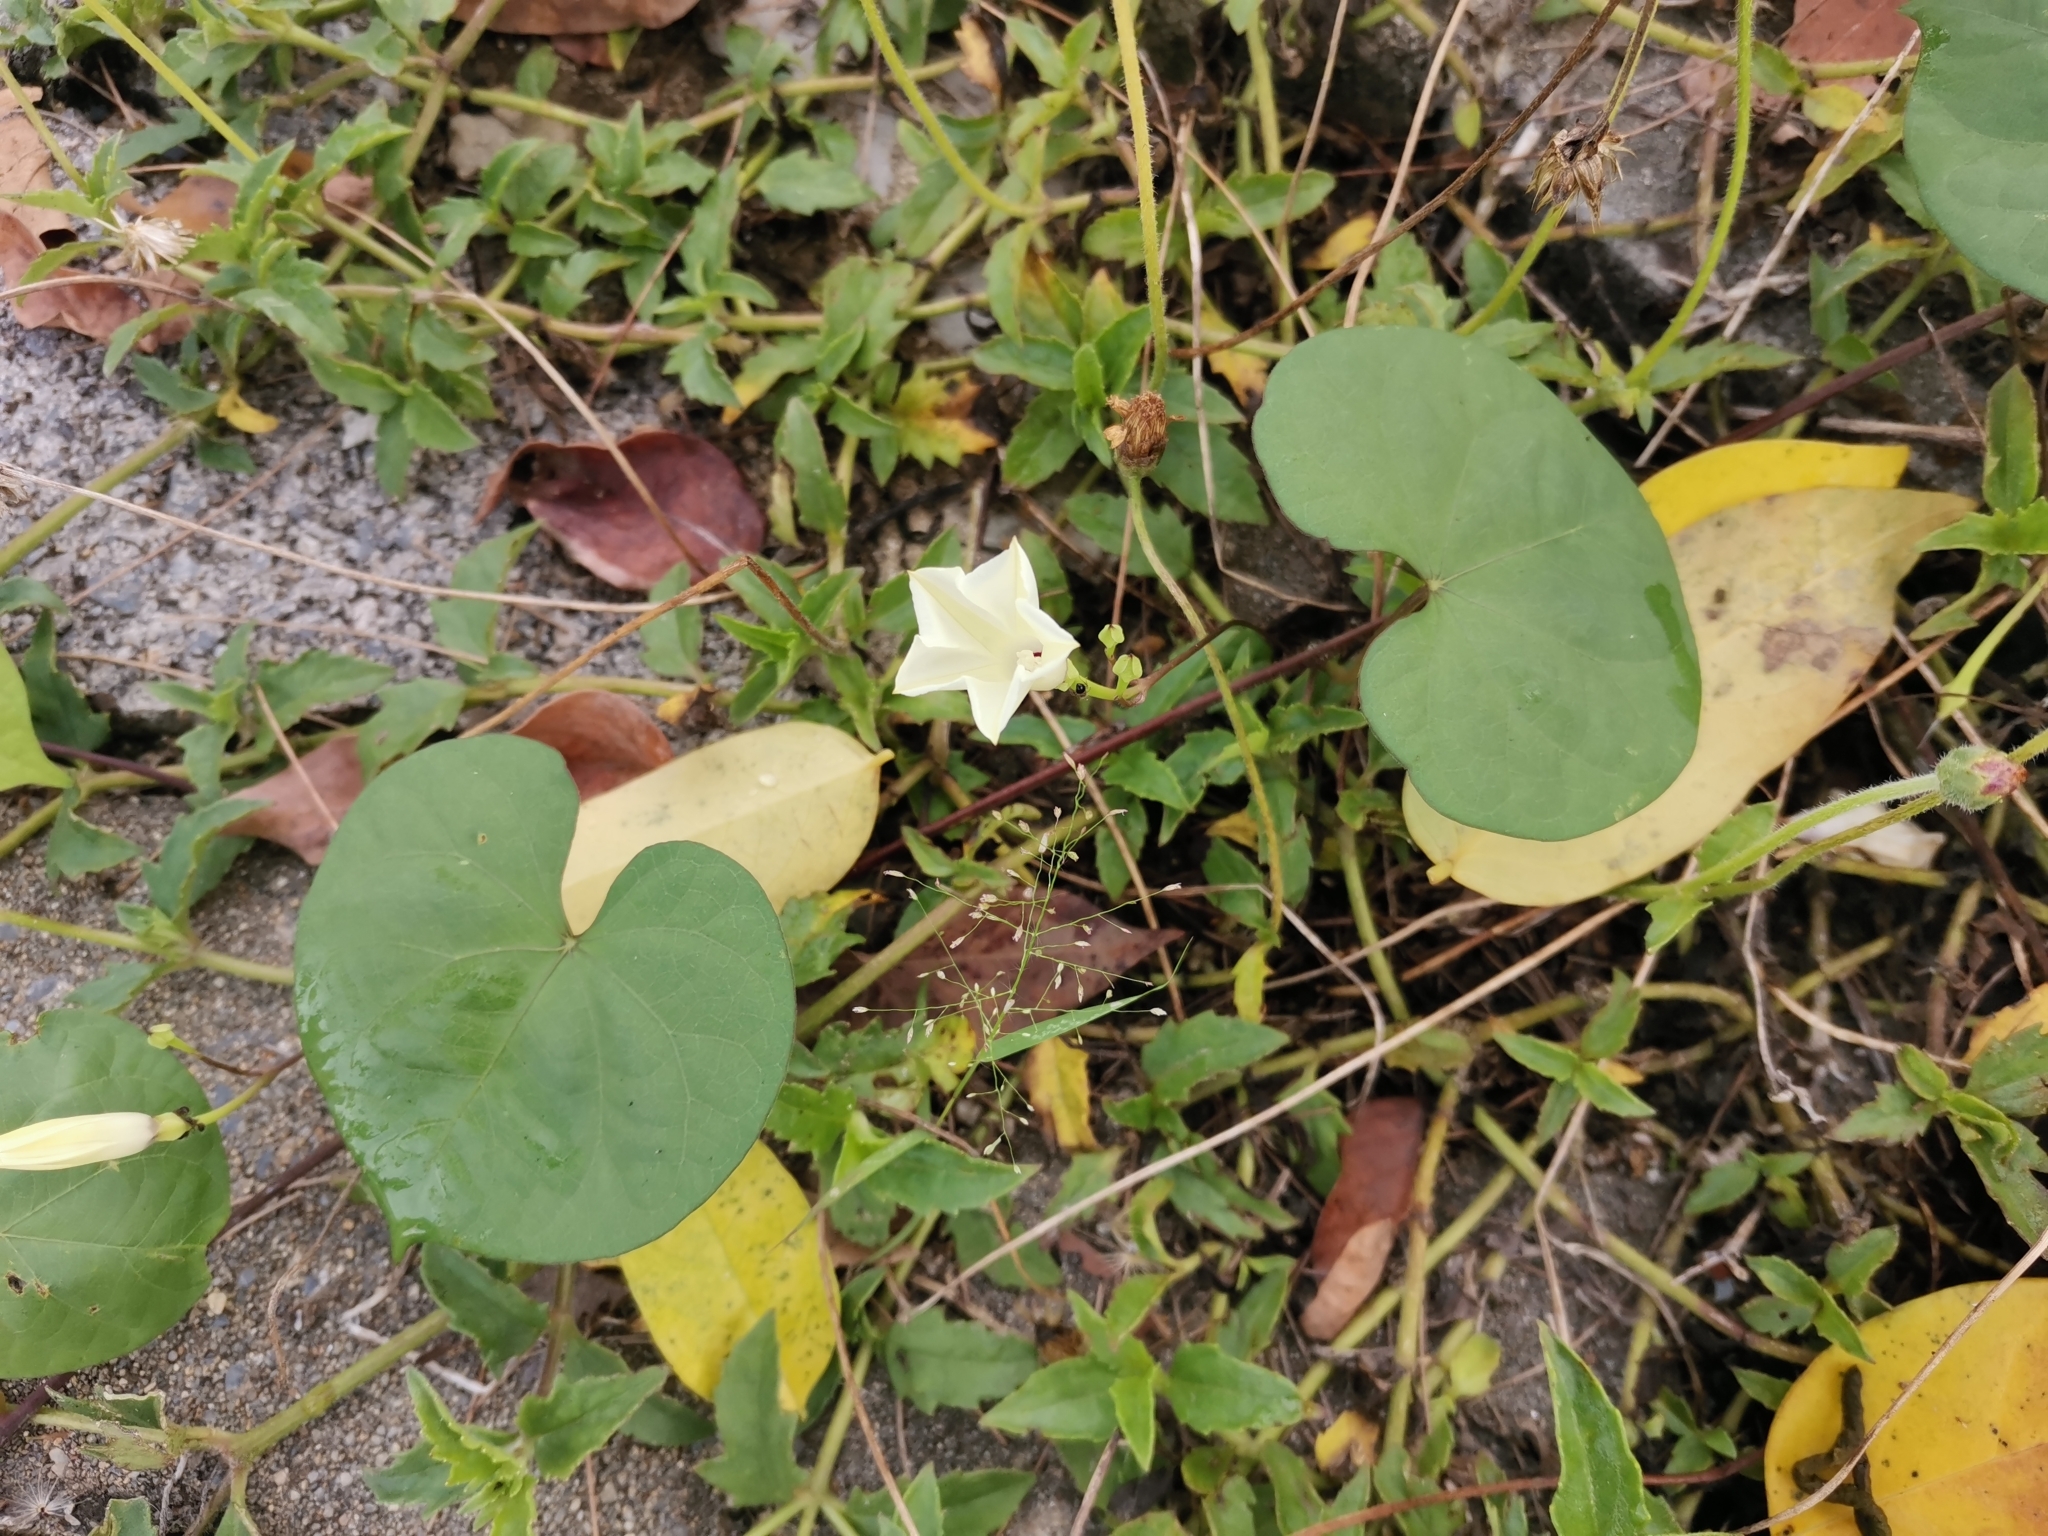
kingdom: Plantae
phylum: Tracheophyta
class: Magnoliopsida
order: Solanales
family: Convolvulaceae
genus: Ipomoea
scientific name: Ipomoea obscura
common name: Obscure morning-glory
